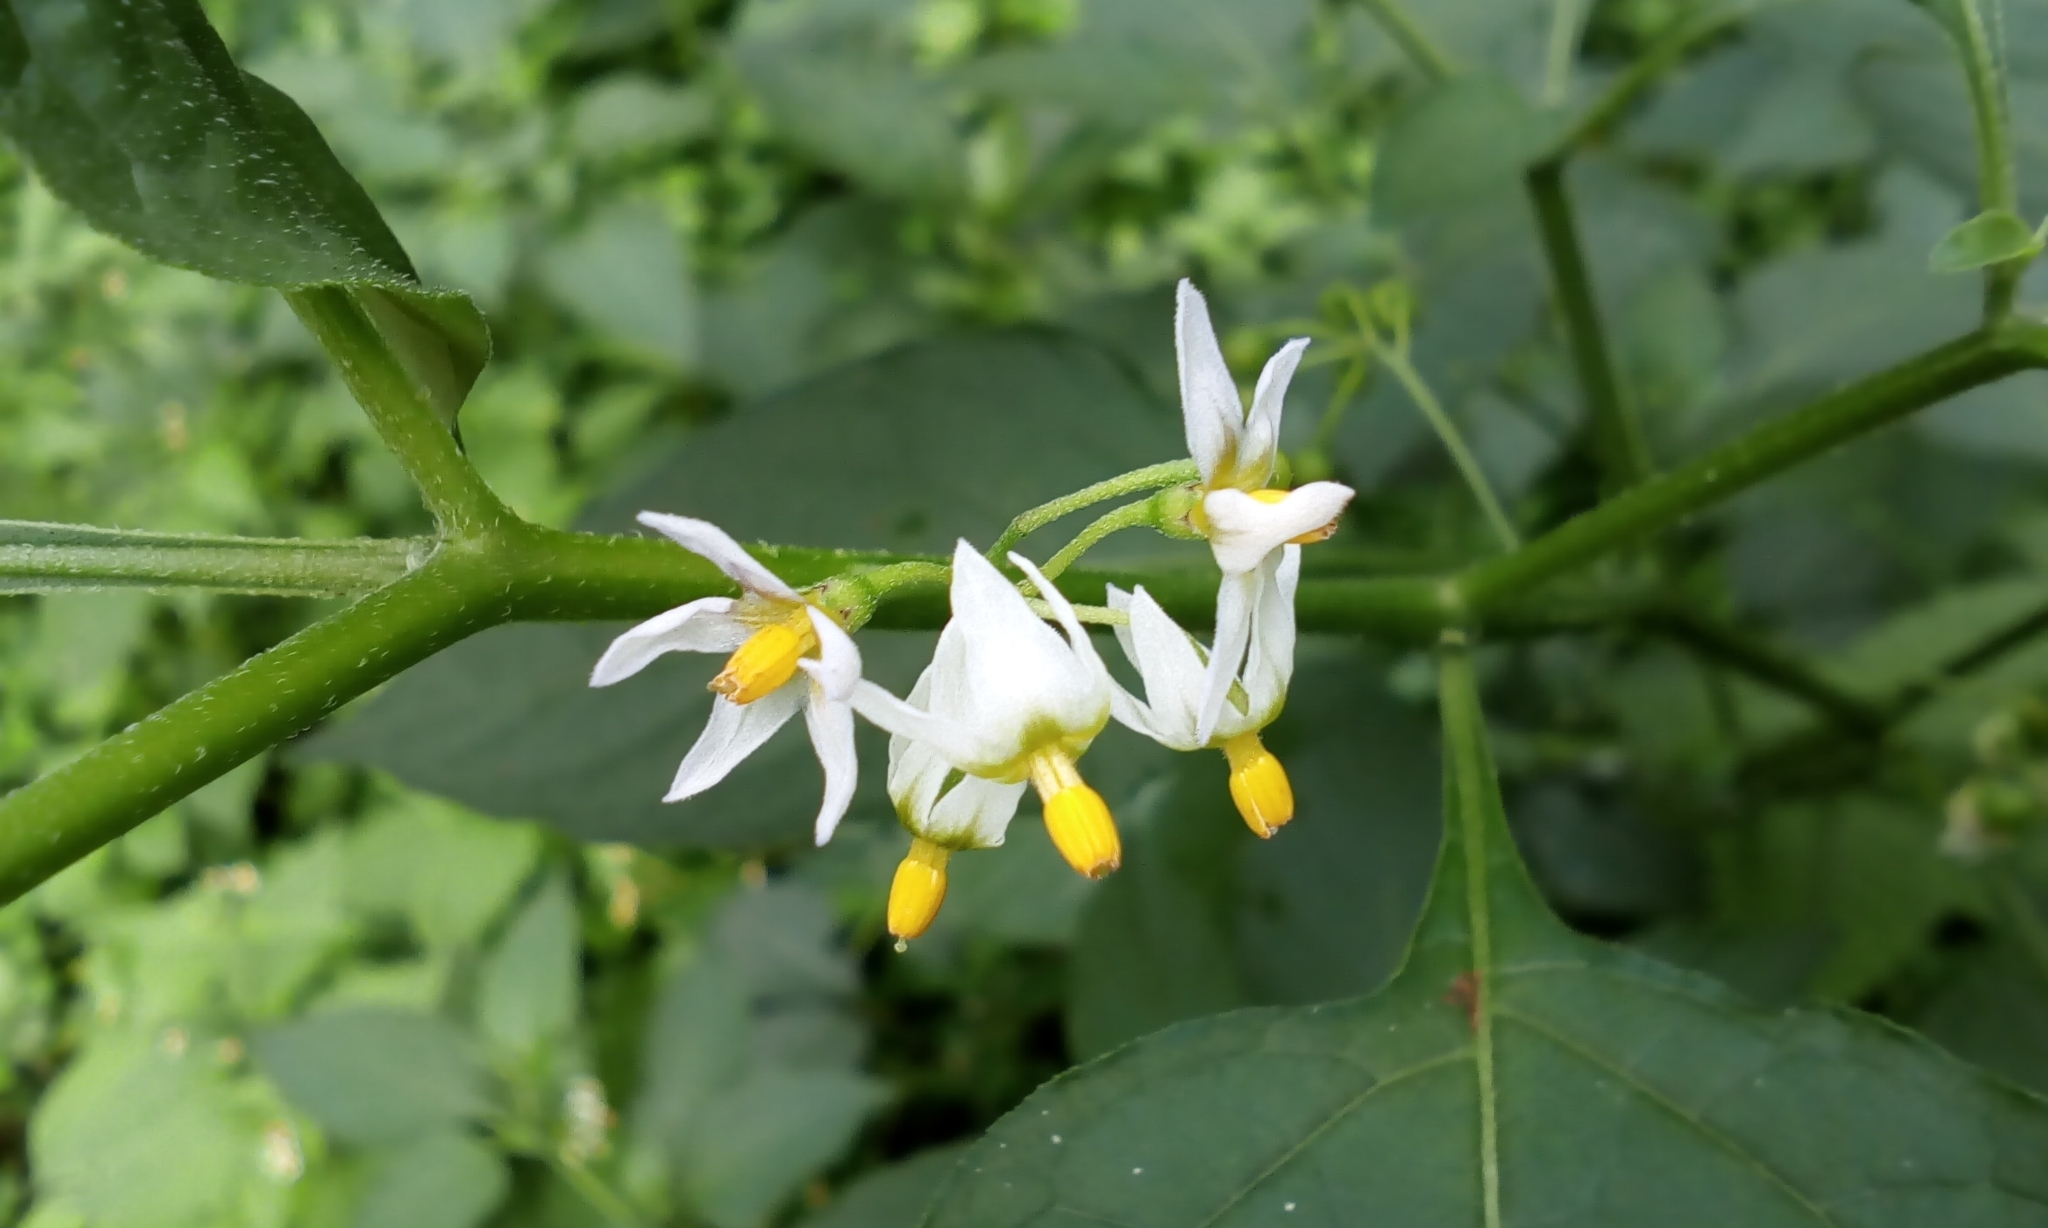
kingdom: Plantae
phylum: Tracheophyta
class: Magnoliopsida
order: Solanales
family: Solanaceae
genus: Solanum
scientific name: Solanum nigrum
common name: Black nightshade
